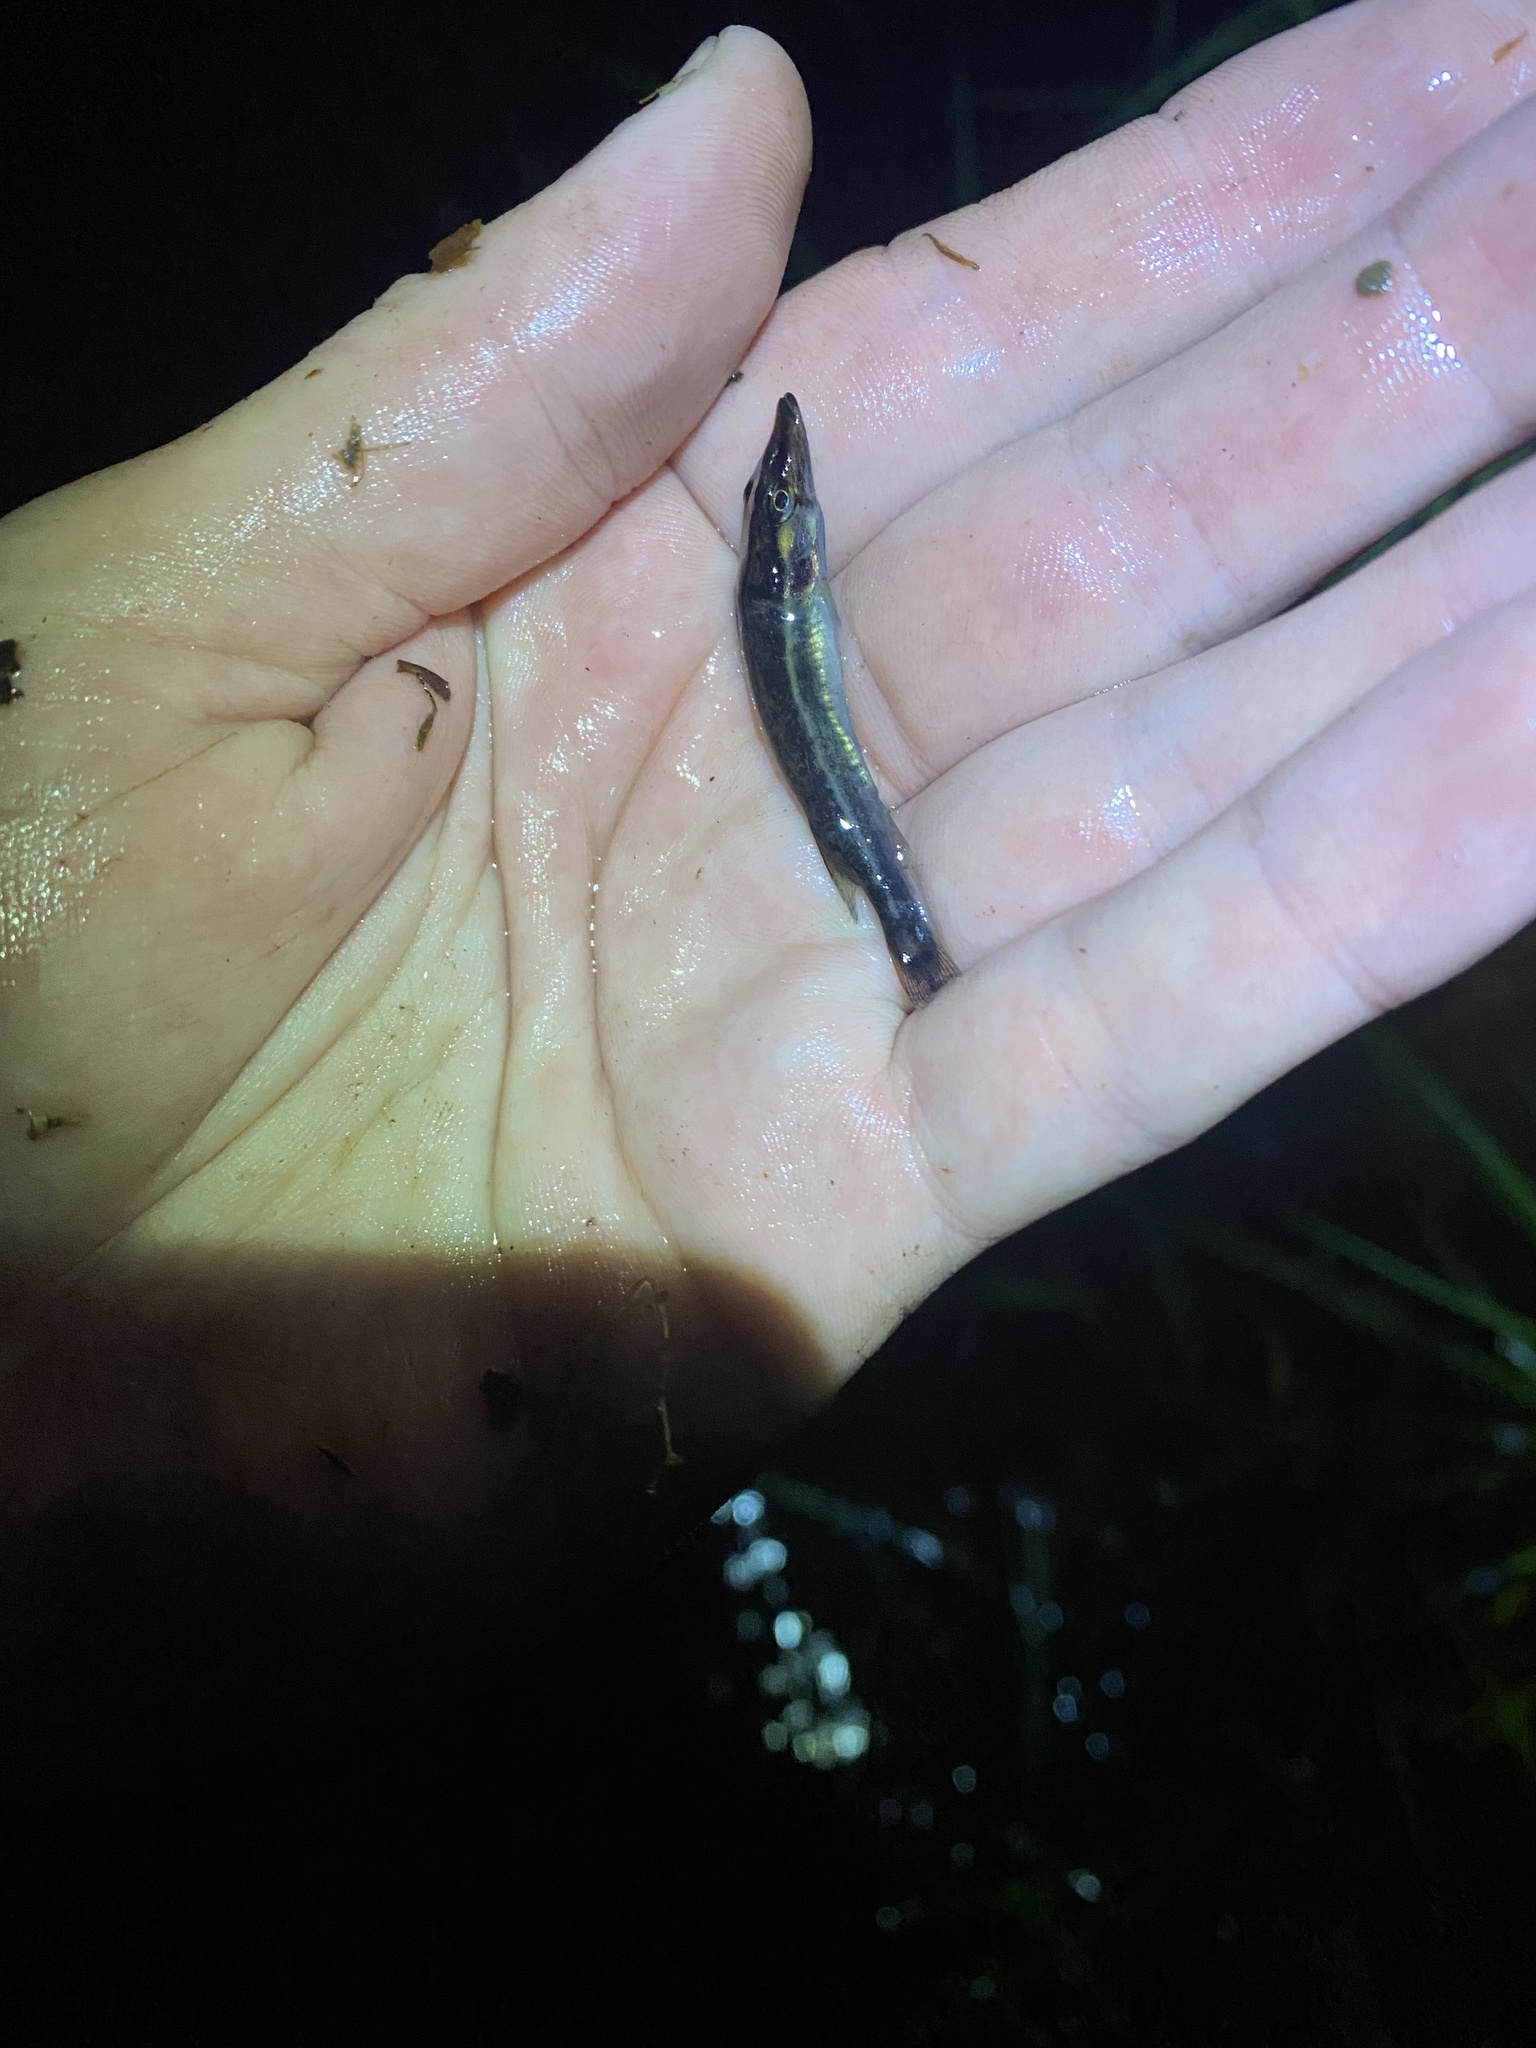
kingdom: Animalia
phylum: Chordata
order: Esociformes
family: Esocidae
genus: Esox
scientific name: Esox americanus
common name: Redfin pickerel
